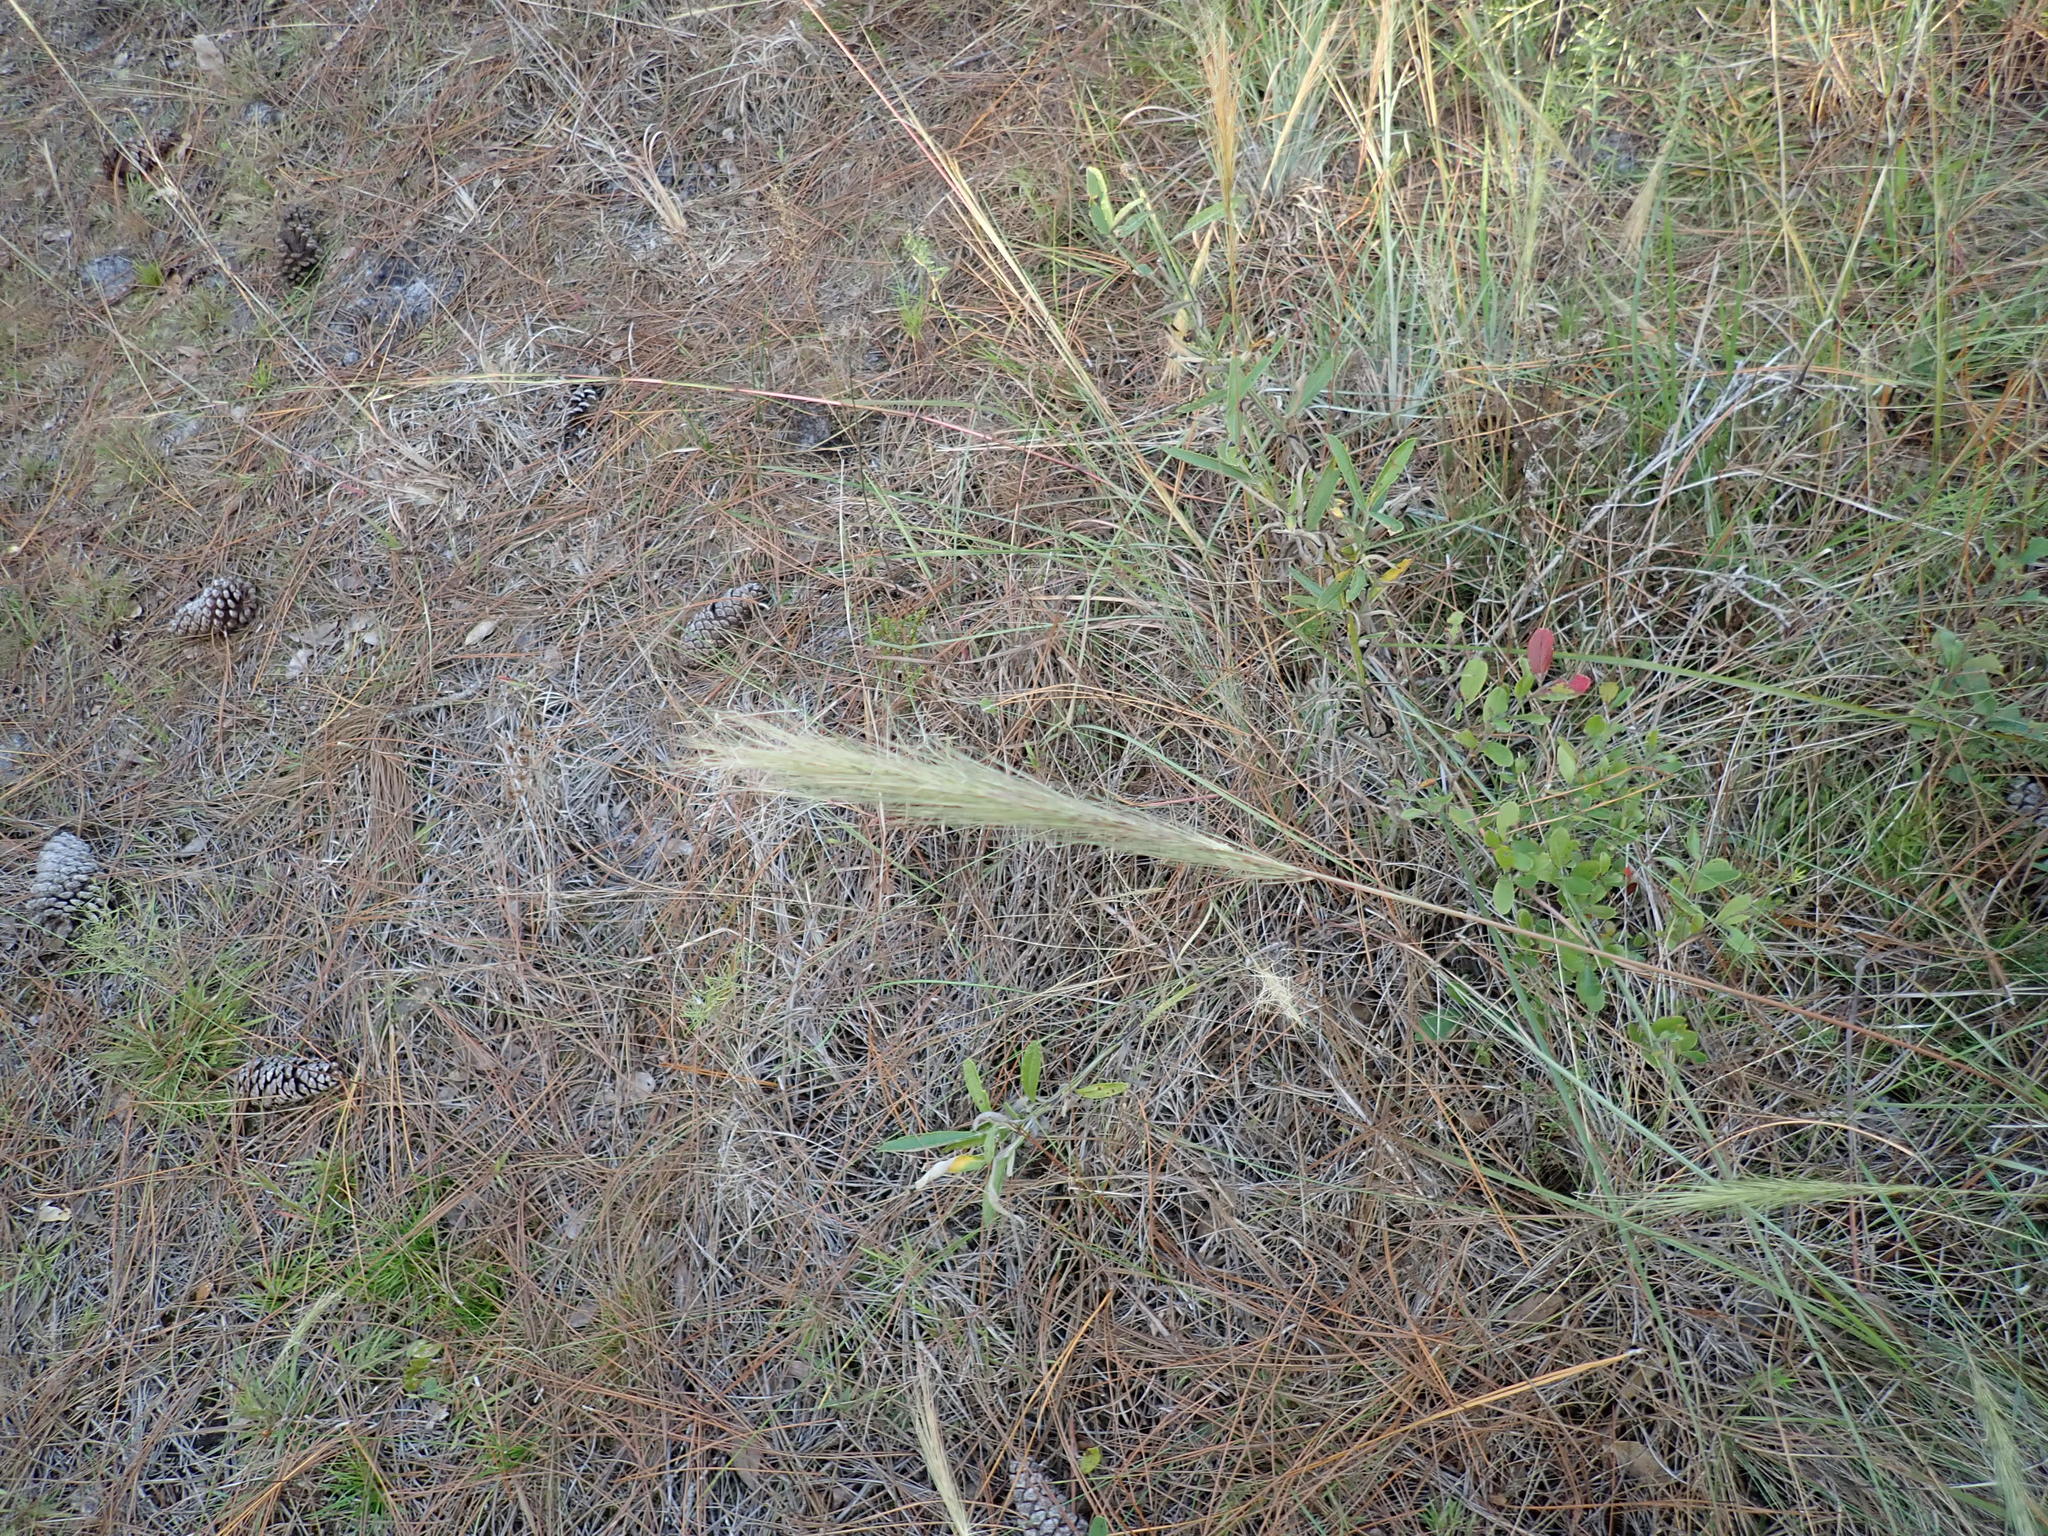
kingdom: Plantae
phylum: Tracheophyta
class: Liliopsida
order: Poales
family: Poaceae
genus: Aristida
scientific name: Aristida spiciformis
